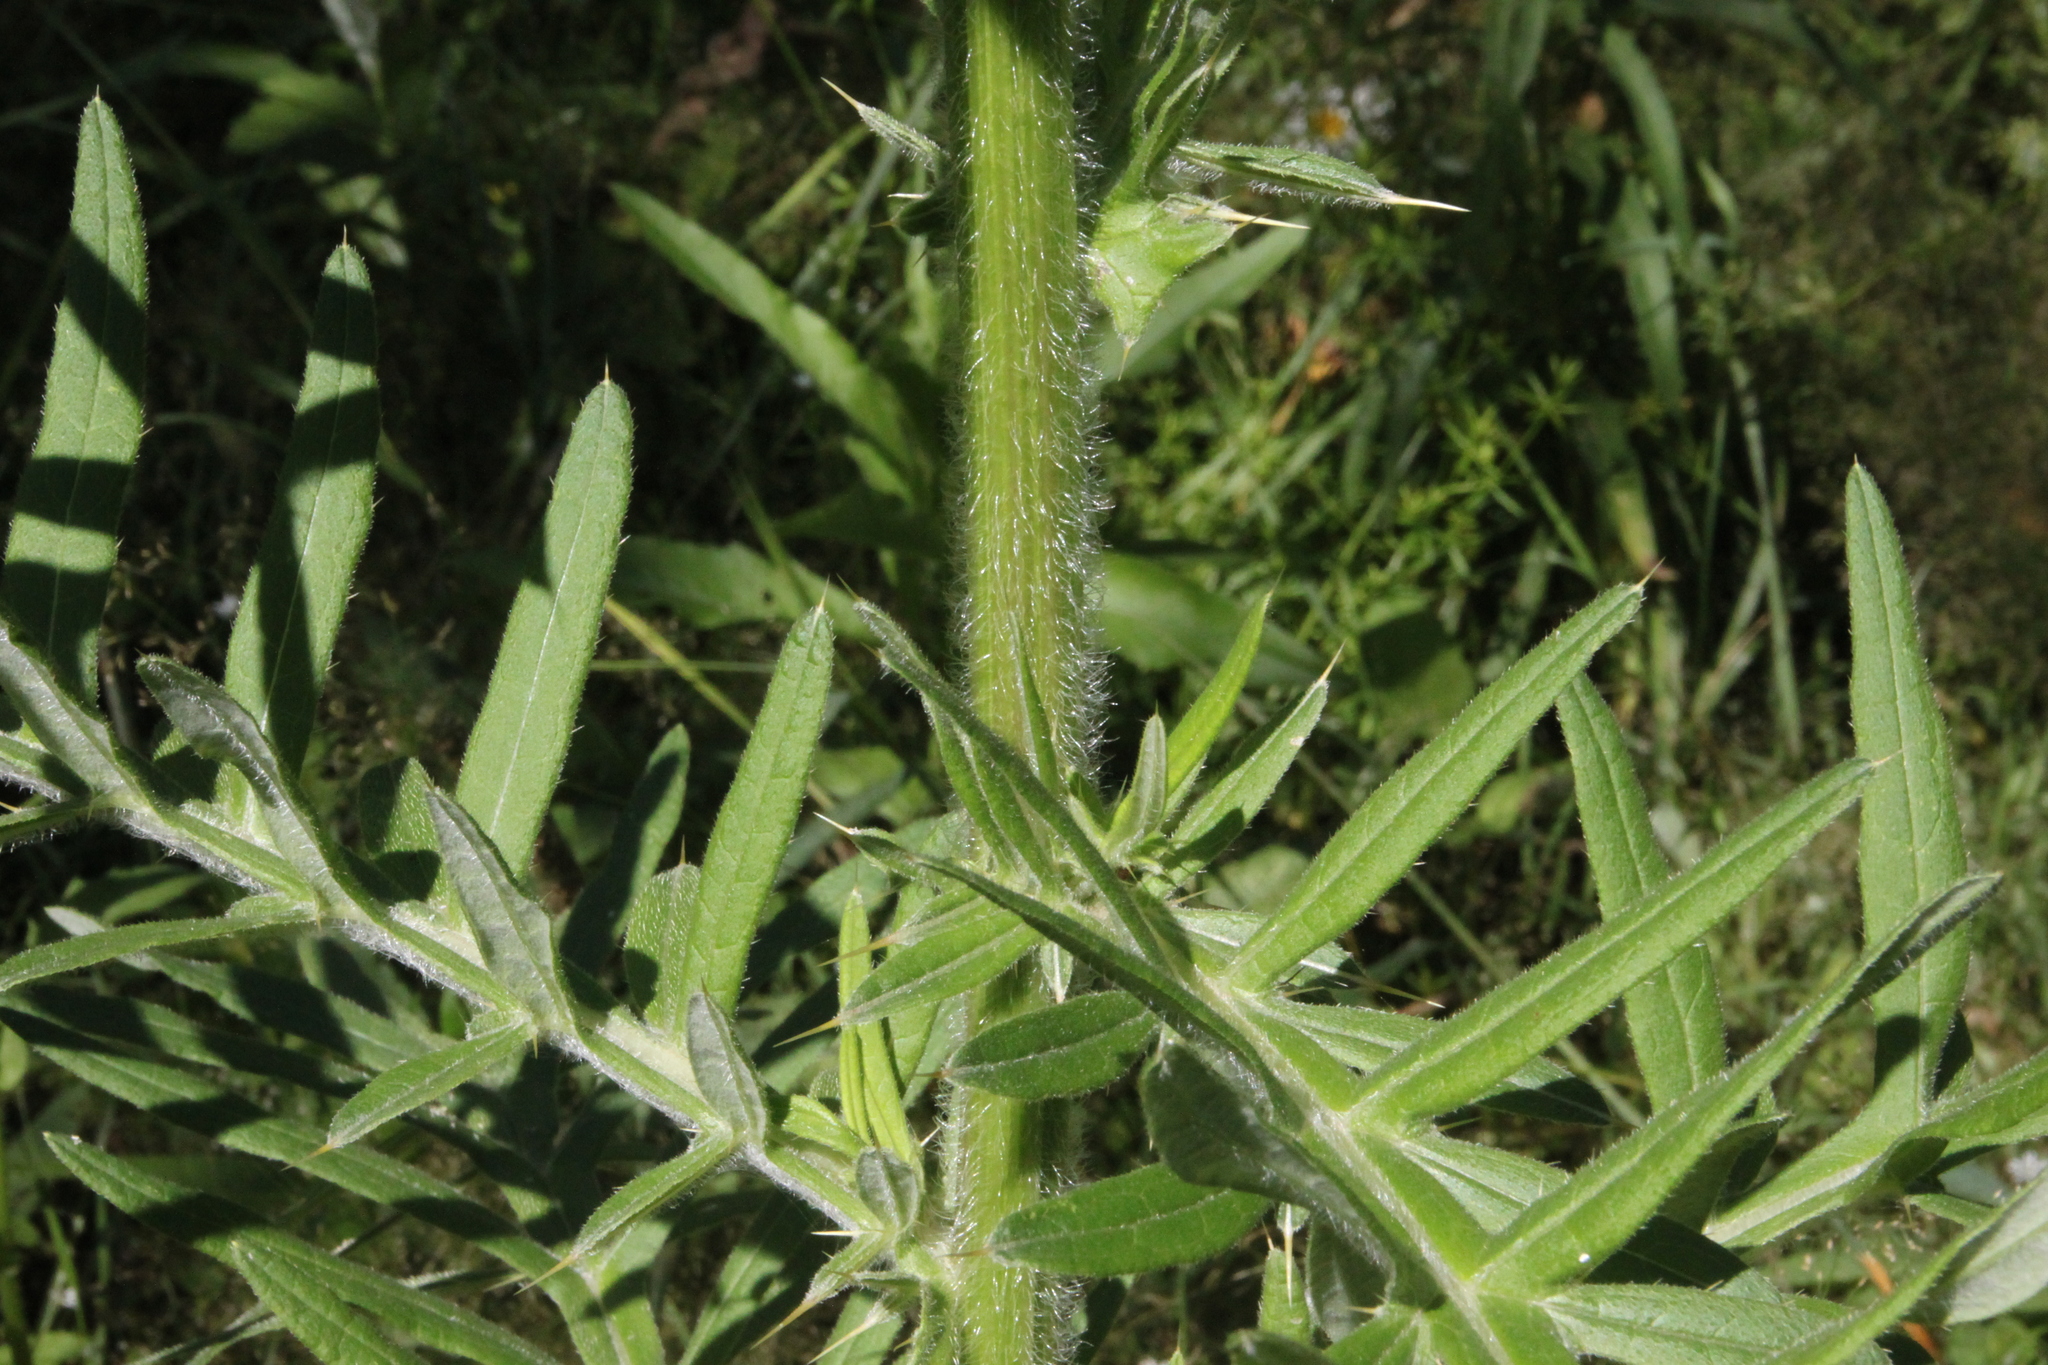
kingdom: Plantae
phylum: Tracheophyta
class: Magnoliopsida
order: Asterales
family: Asteraceae
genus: Lophiolepis
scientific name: Lophiolepis decussata
